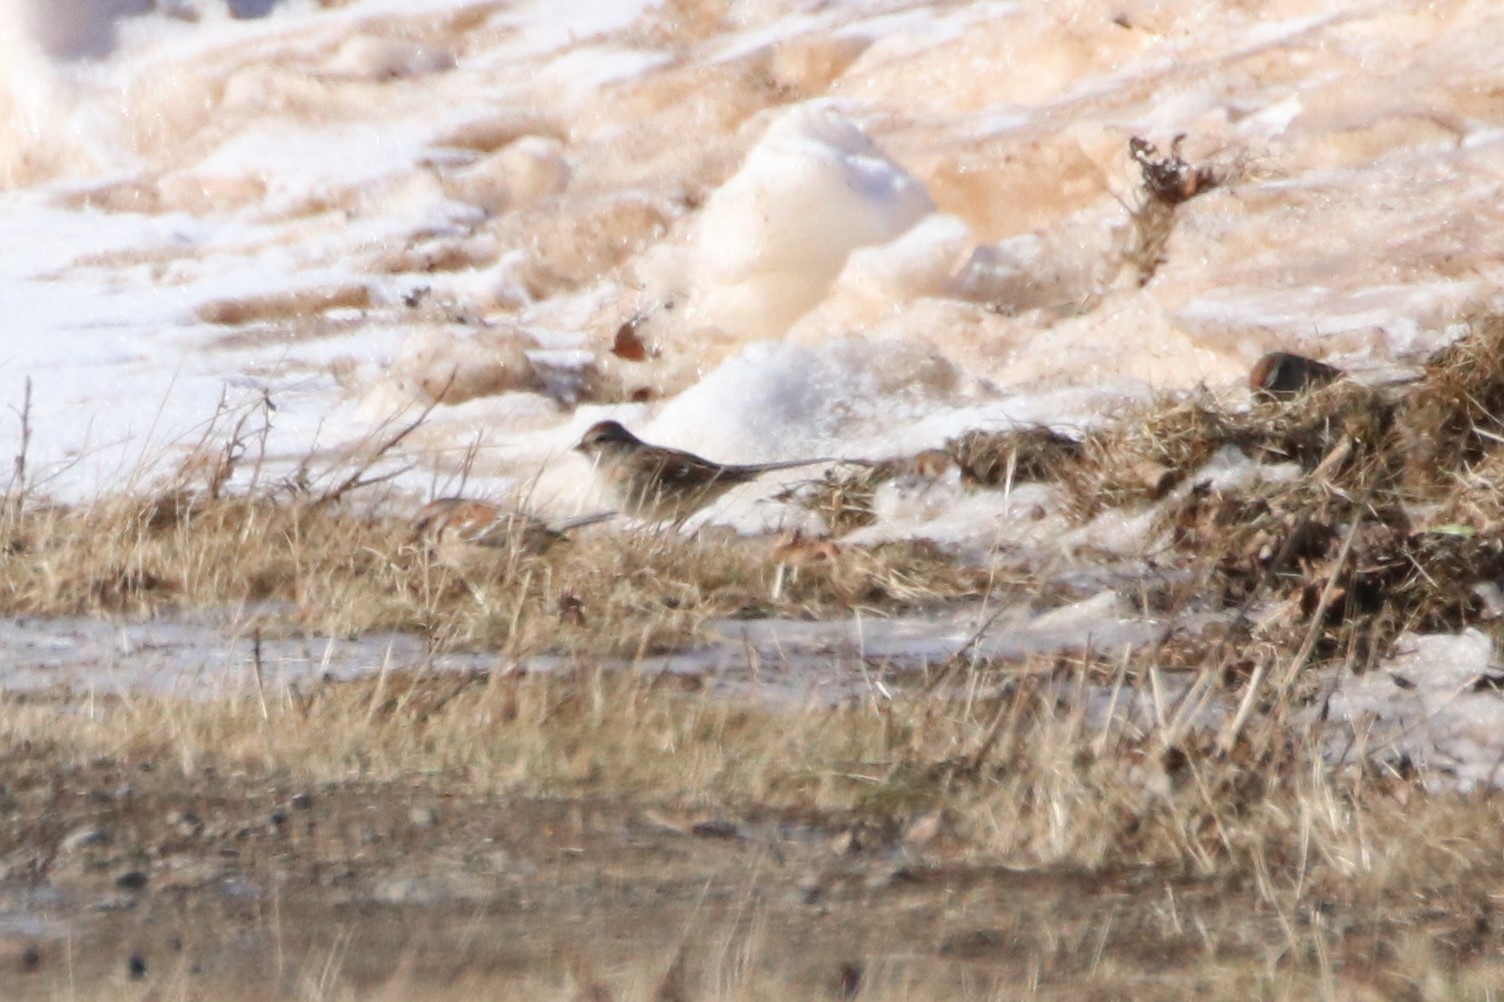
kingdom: Animalia
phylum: Chordata
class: Aves
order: Passeriformes
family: Passerellidae
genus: Spizelloides
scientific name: Spizelloides arborea
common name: American tree sparrow
